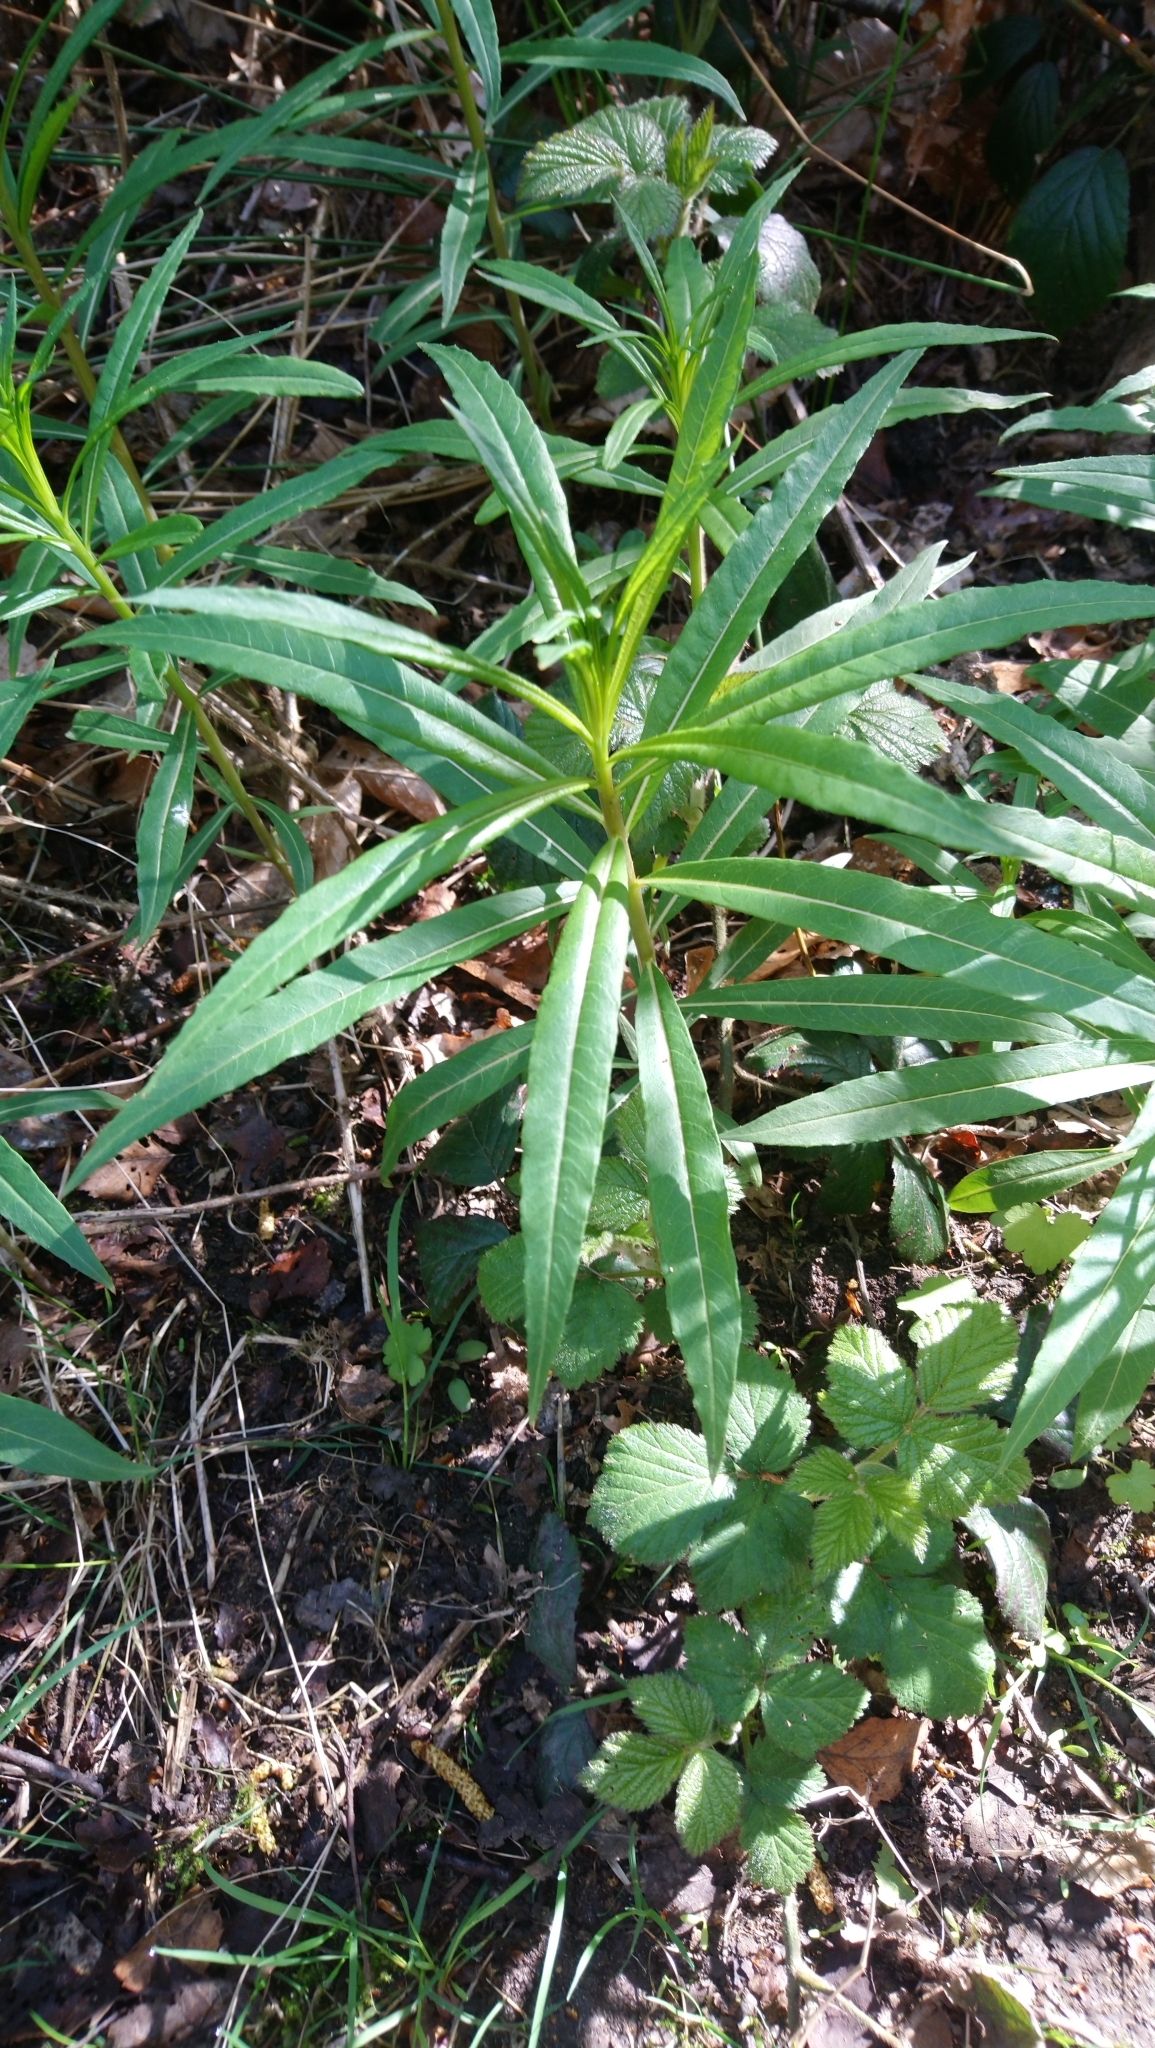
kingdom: Plantae
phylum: Tracheophyta
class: Magnoliopsida
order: Myrtales
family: Onagraceae
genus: Chamaenerion
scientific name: Chamaenerion angustifolium
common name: Fireweed
